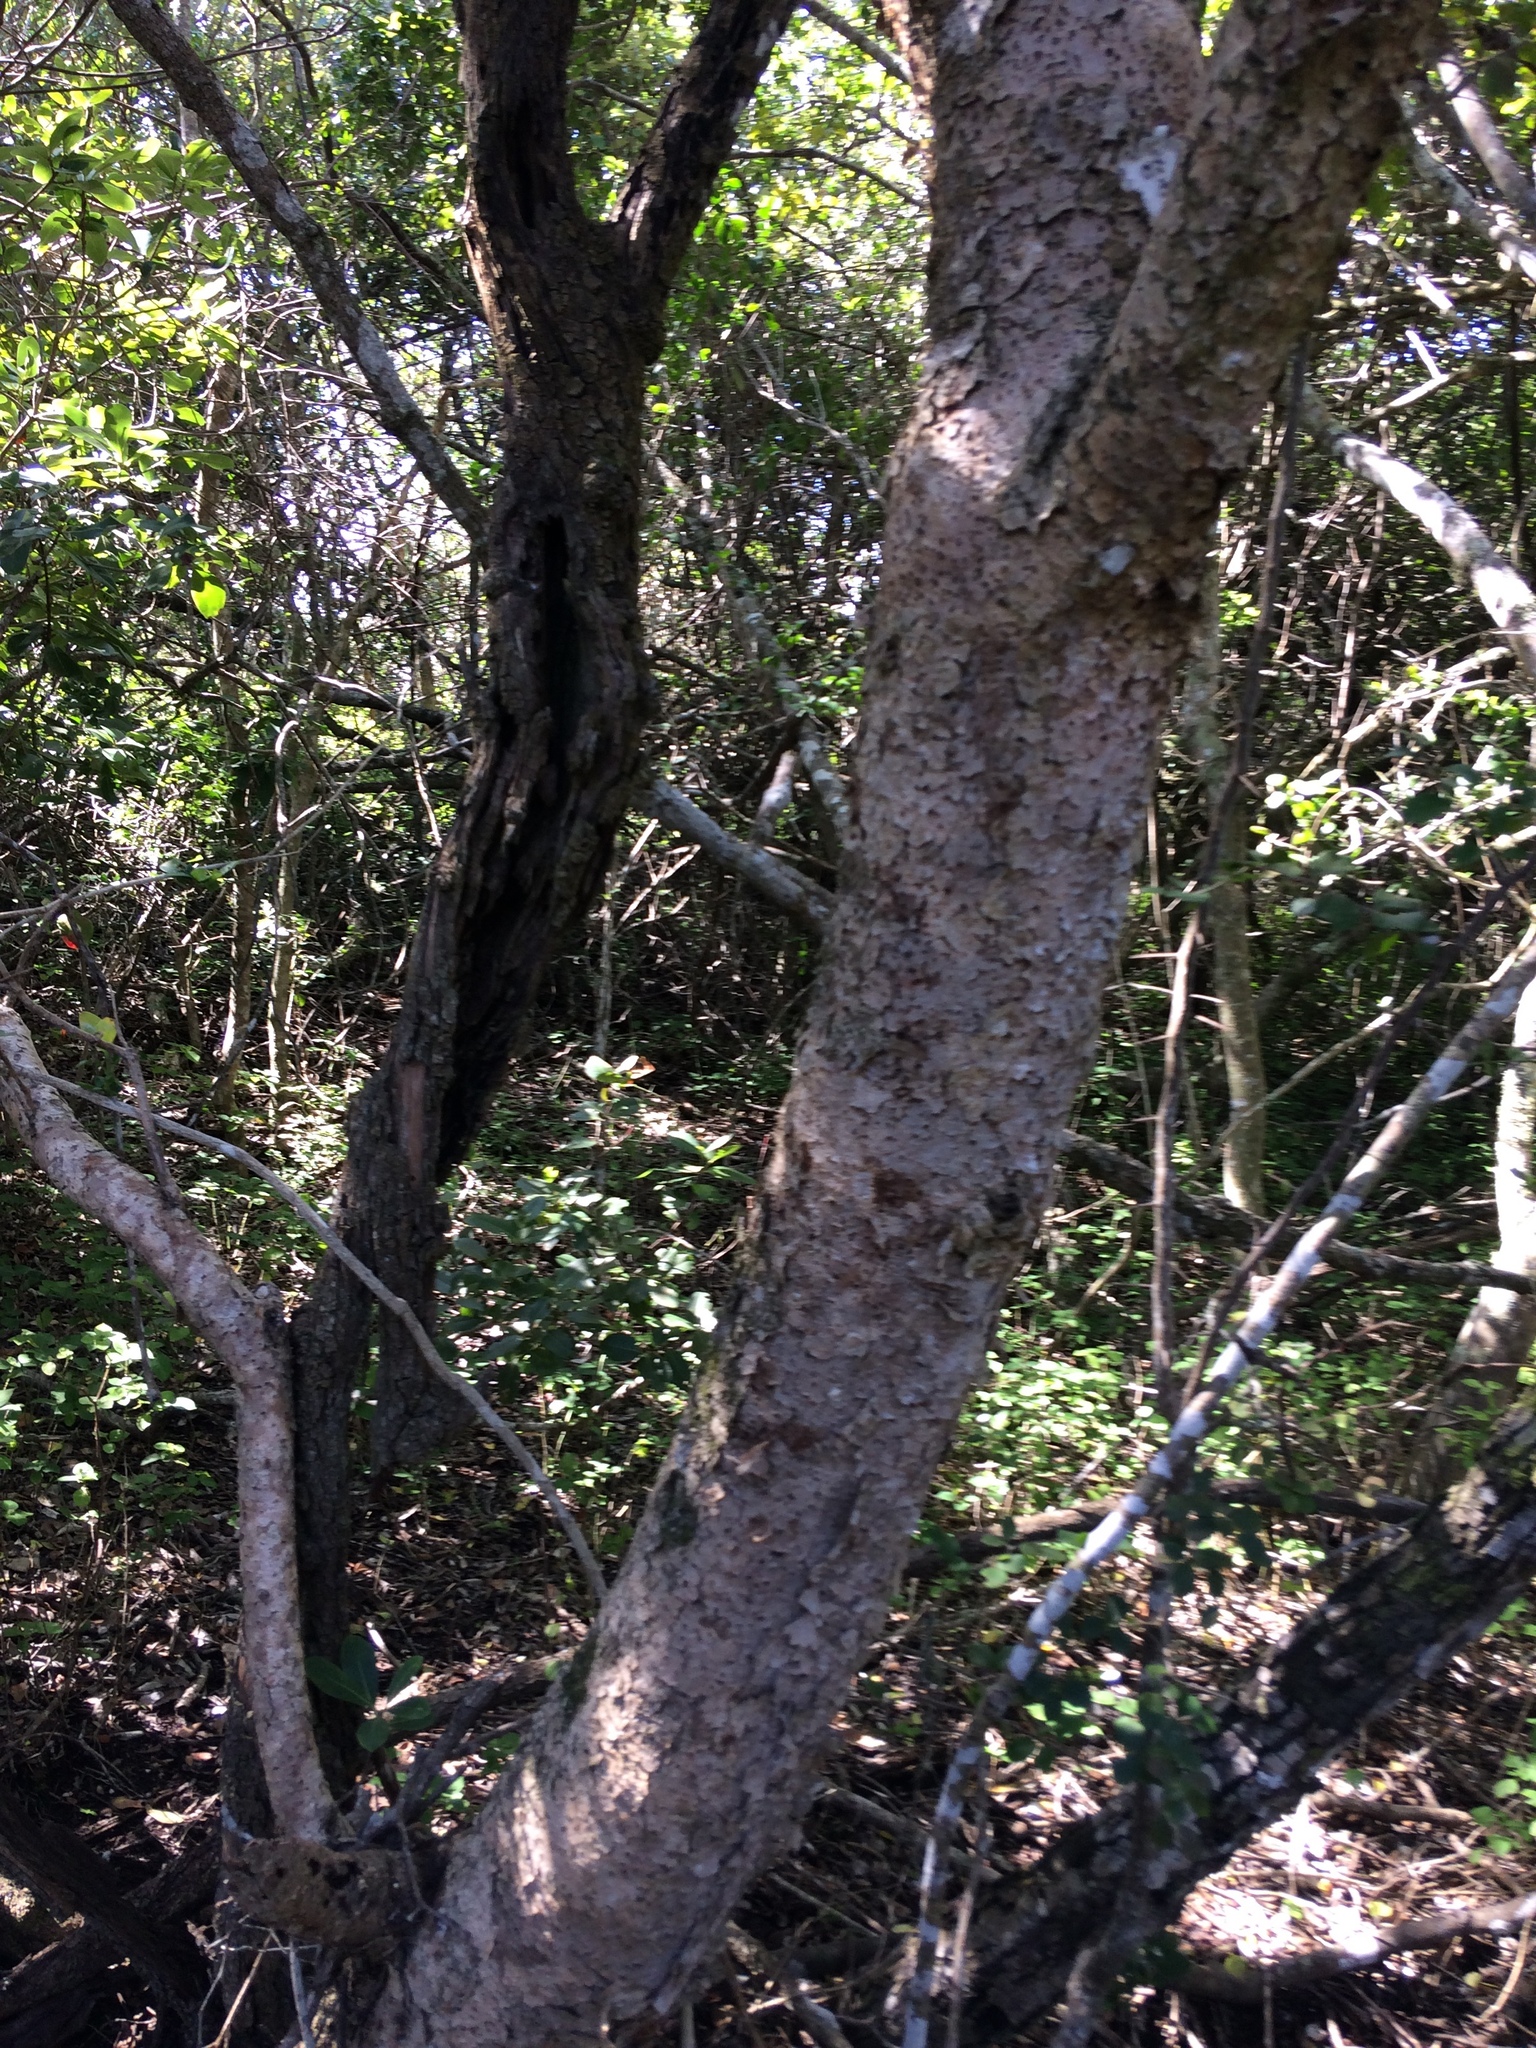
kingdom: Plantae
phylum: Tracheophyta
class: Magnoliopsida
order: Apiales
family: Pittosporaceae
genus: Pittosporum
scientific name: Pittosporum viridiflorum
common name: Cape cheesewood
